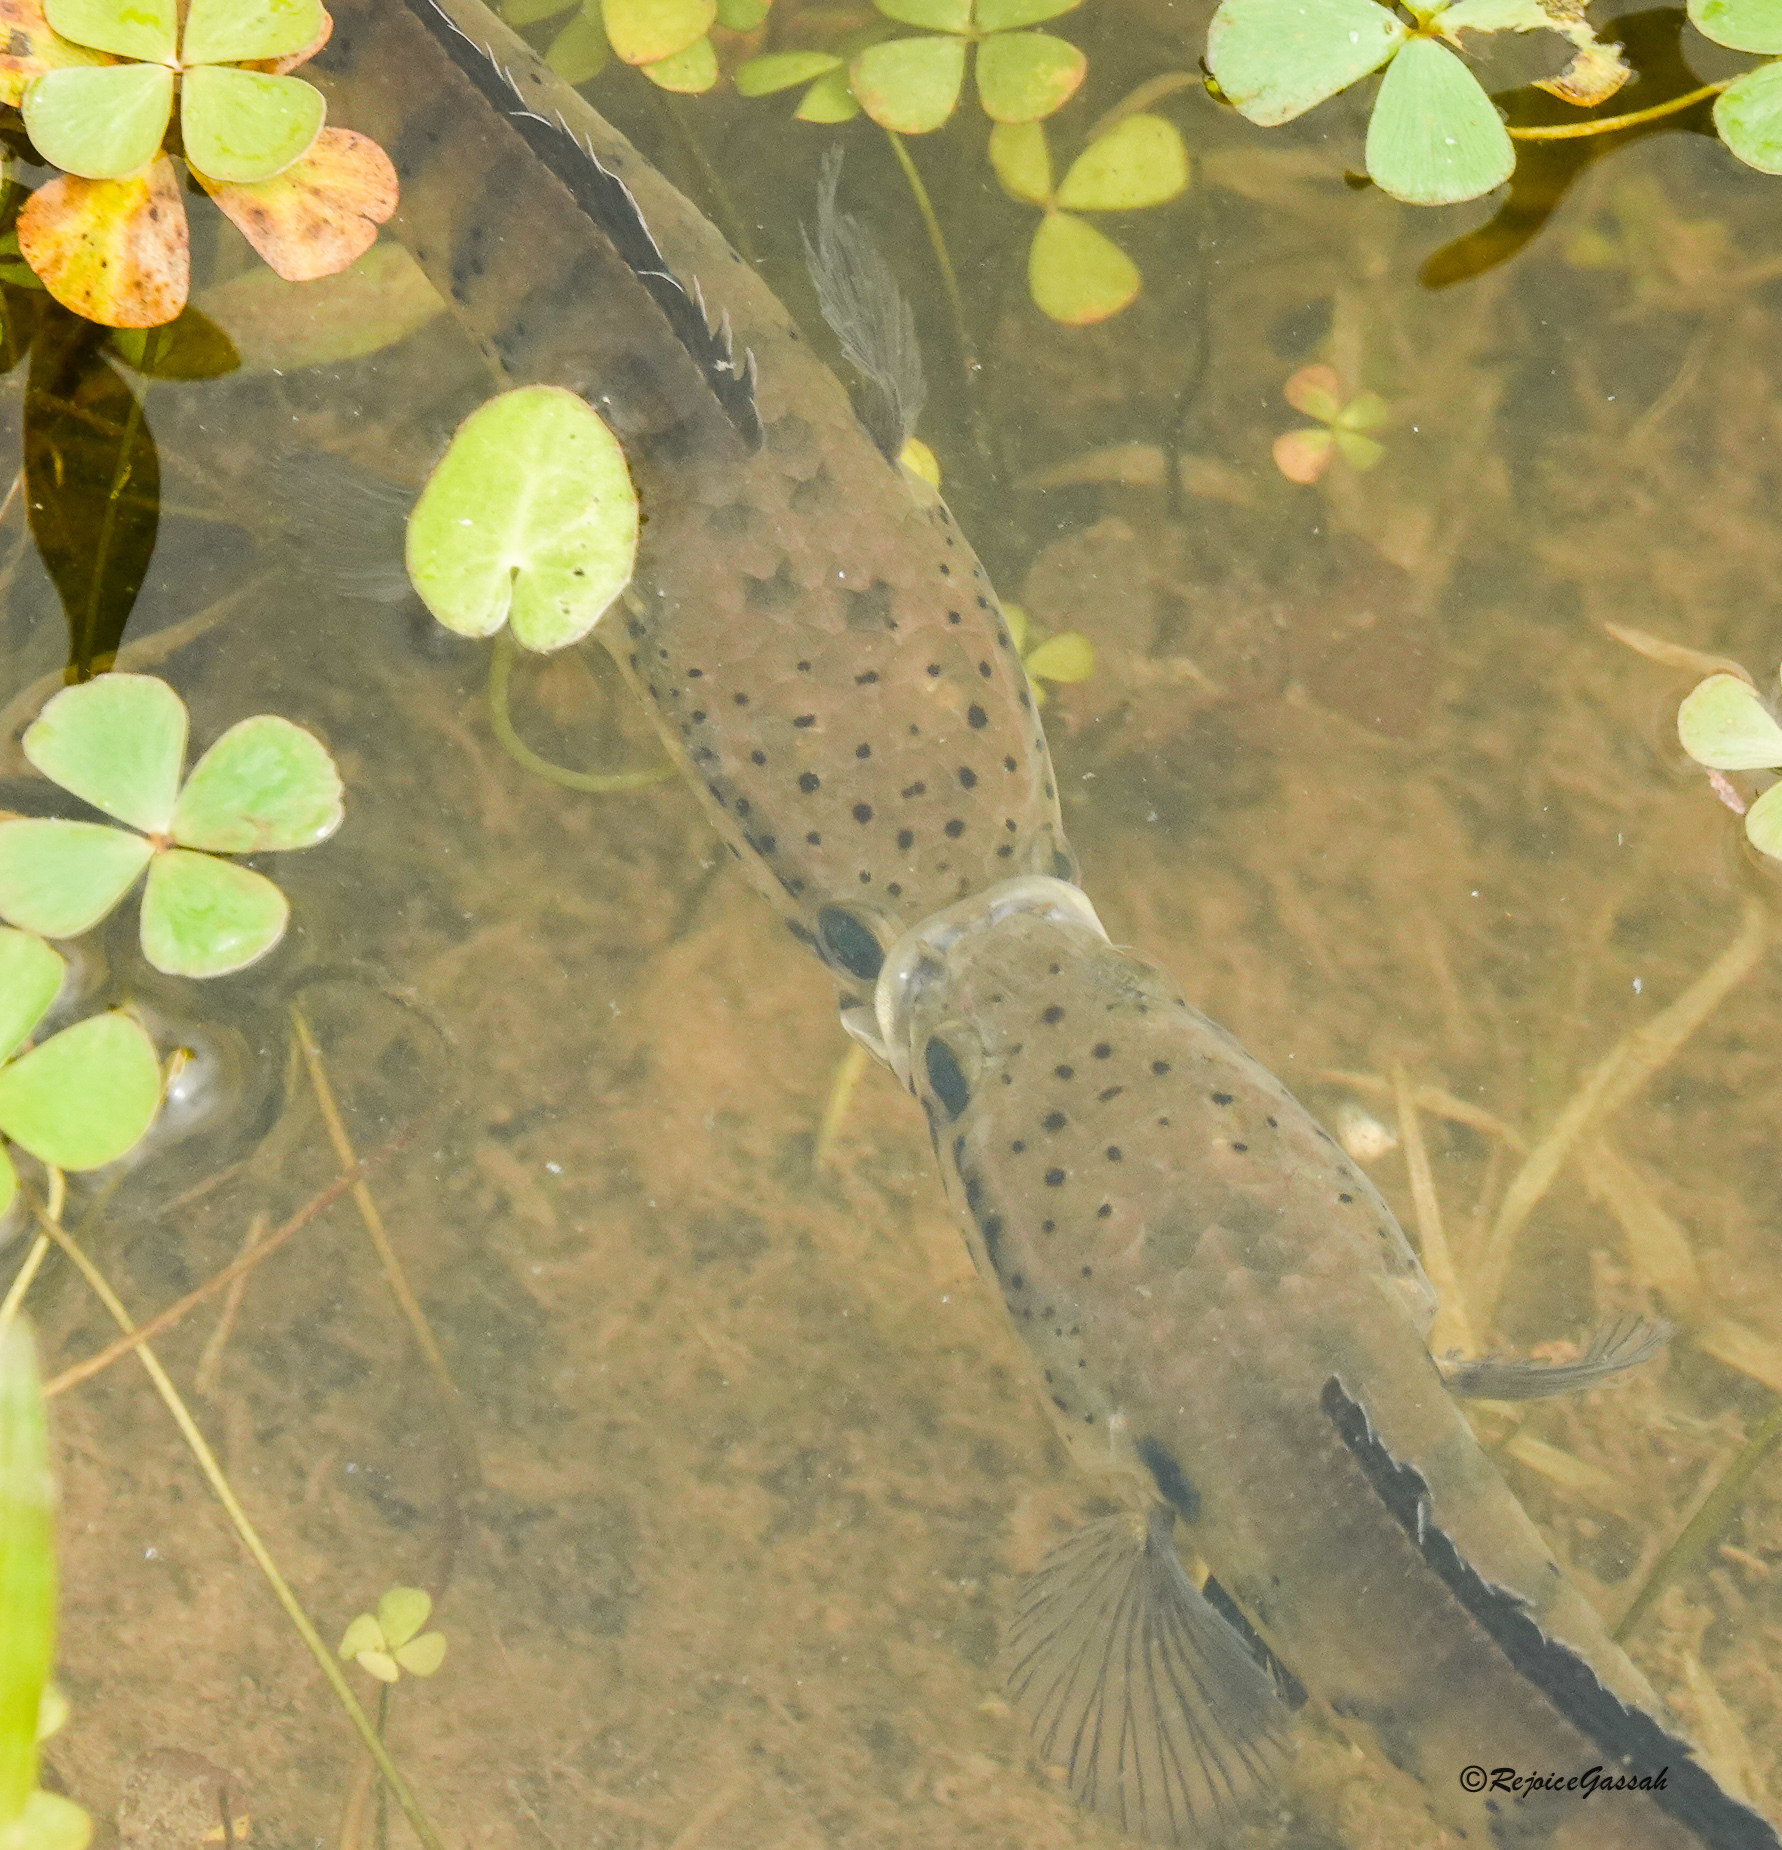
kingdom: Animalia
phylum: Chordata
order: Perciformes
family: Channidae
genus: Channa
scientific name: Channa punctata
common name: Spotted snakehead
